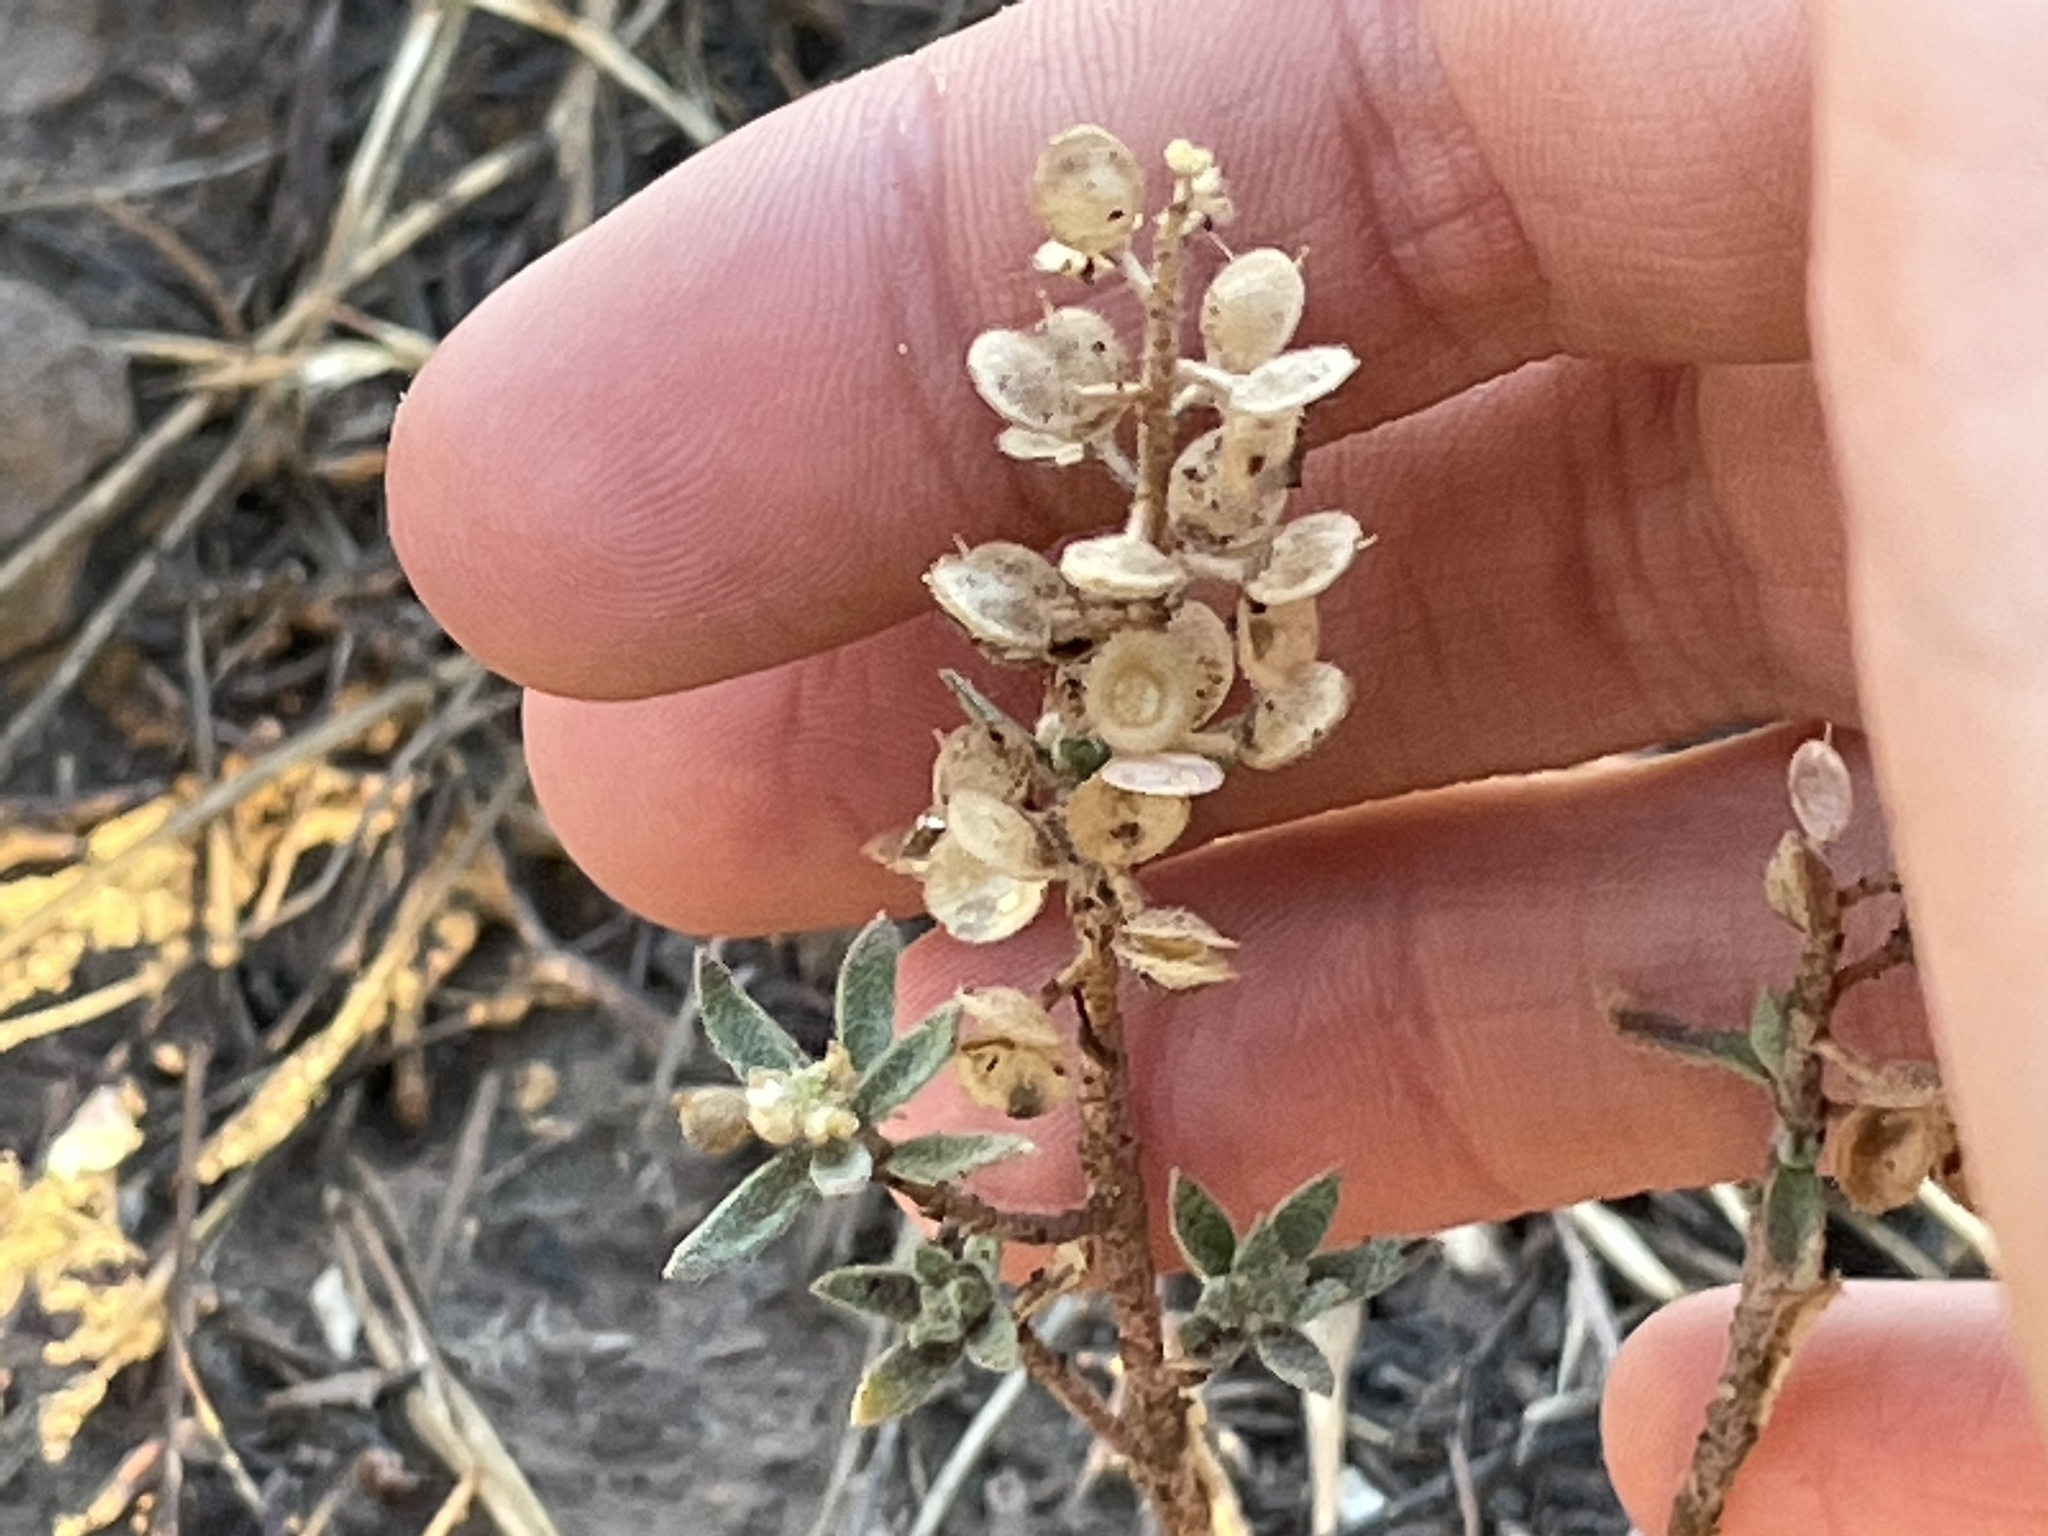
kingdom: Plantae
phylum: Tracheophyta
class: Magnoliopsida
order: Brassicales
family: Brassicaceae
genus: Alyssum
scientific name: Alyssum simplex
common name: Alyssum
